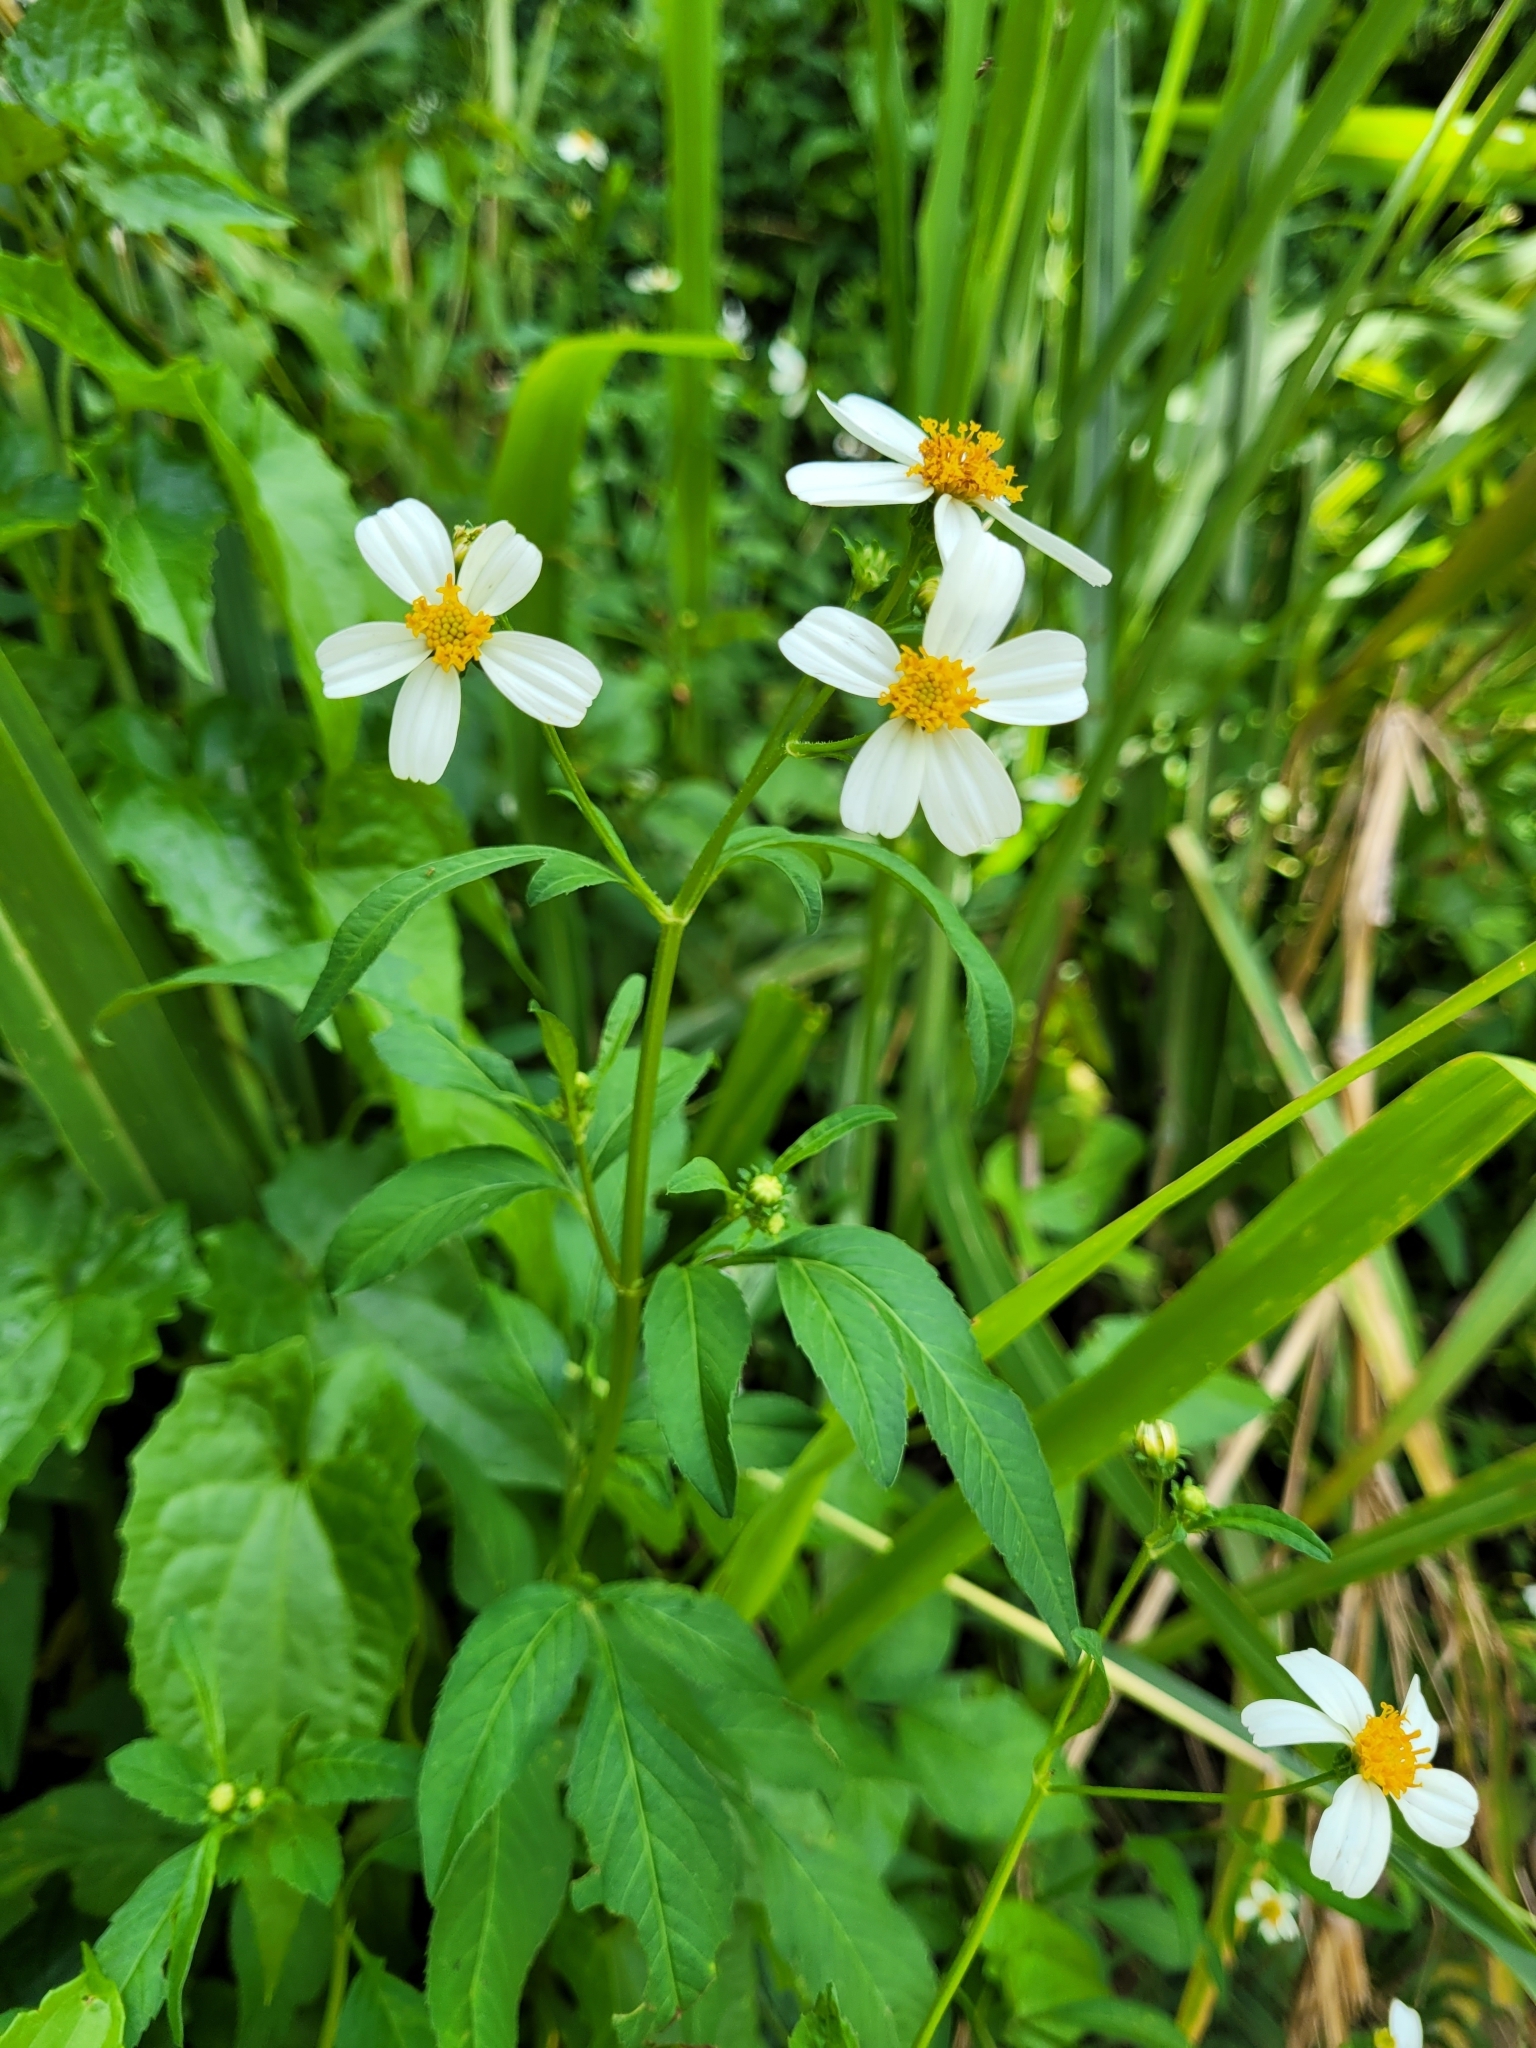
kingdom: Plantae
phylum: Tracheophyta
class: Magnoliopsida
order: Asterales
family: Asteraceae
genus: Bidens
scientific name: Bidens alba
